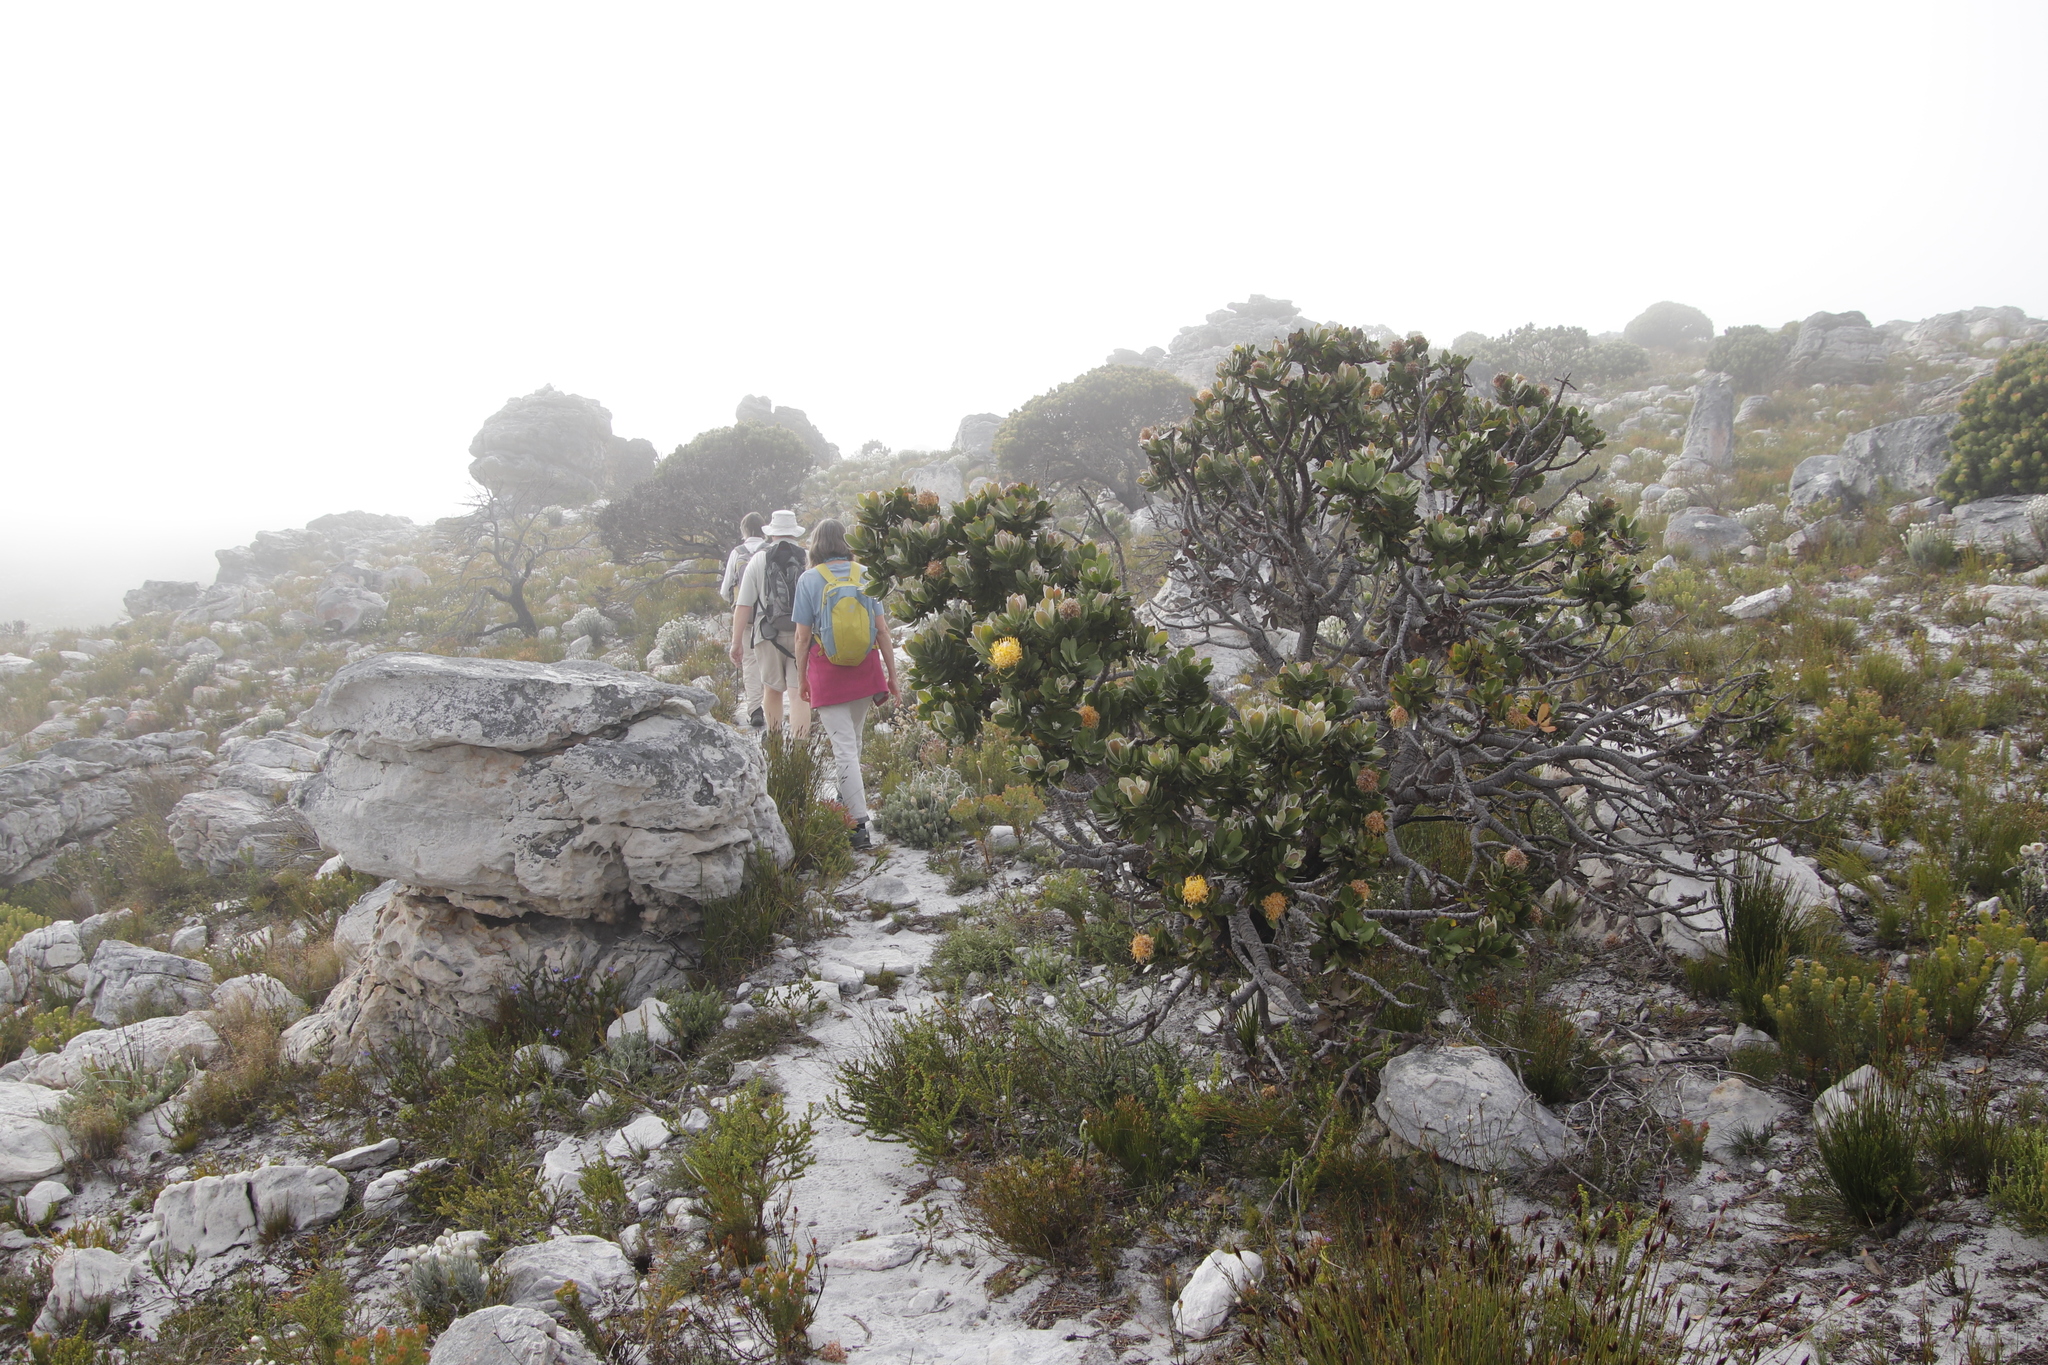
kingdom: Plantae
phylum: Tracheophyta
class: Magnoliopsida
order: Proteales
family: Proteaceae
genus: Leucospermum
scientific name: Leucospermum conocarpodendron
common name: Tree pincushion
